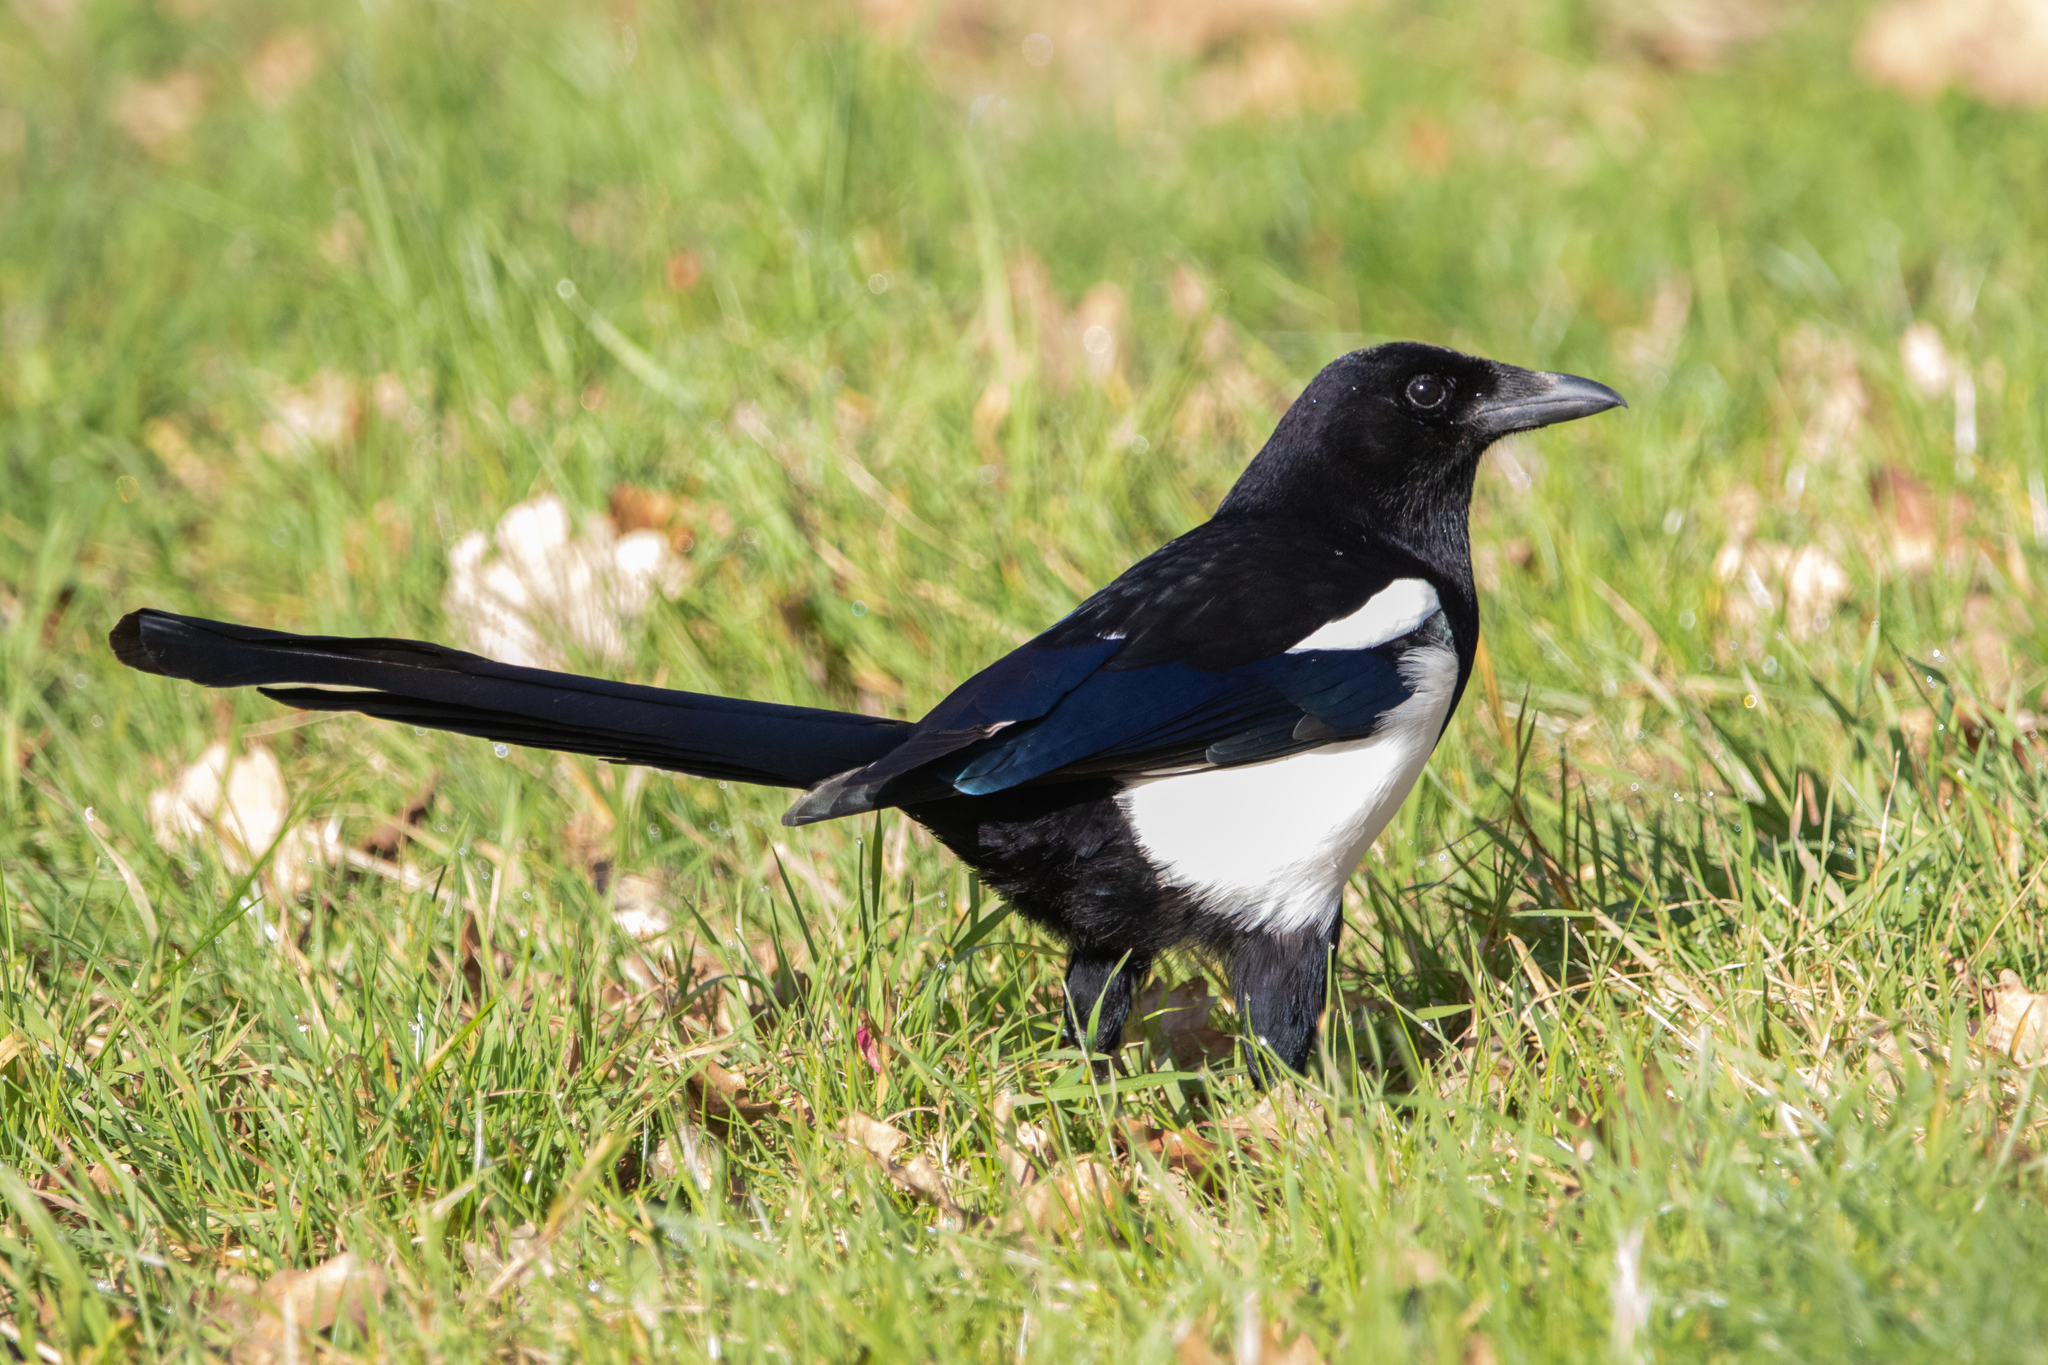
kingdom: Animalia
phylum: Chordata
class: Aves
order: Passeriformes
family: Corvidae
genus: Pica
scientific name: Pica pica
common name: Eurasian magpie
